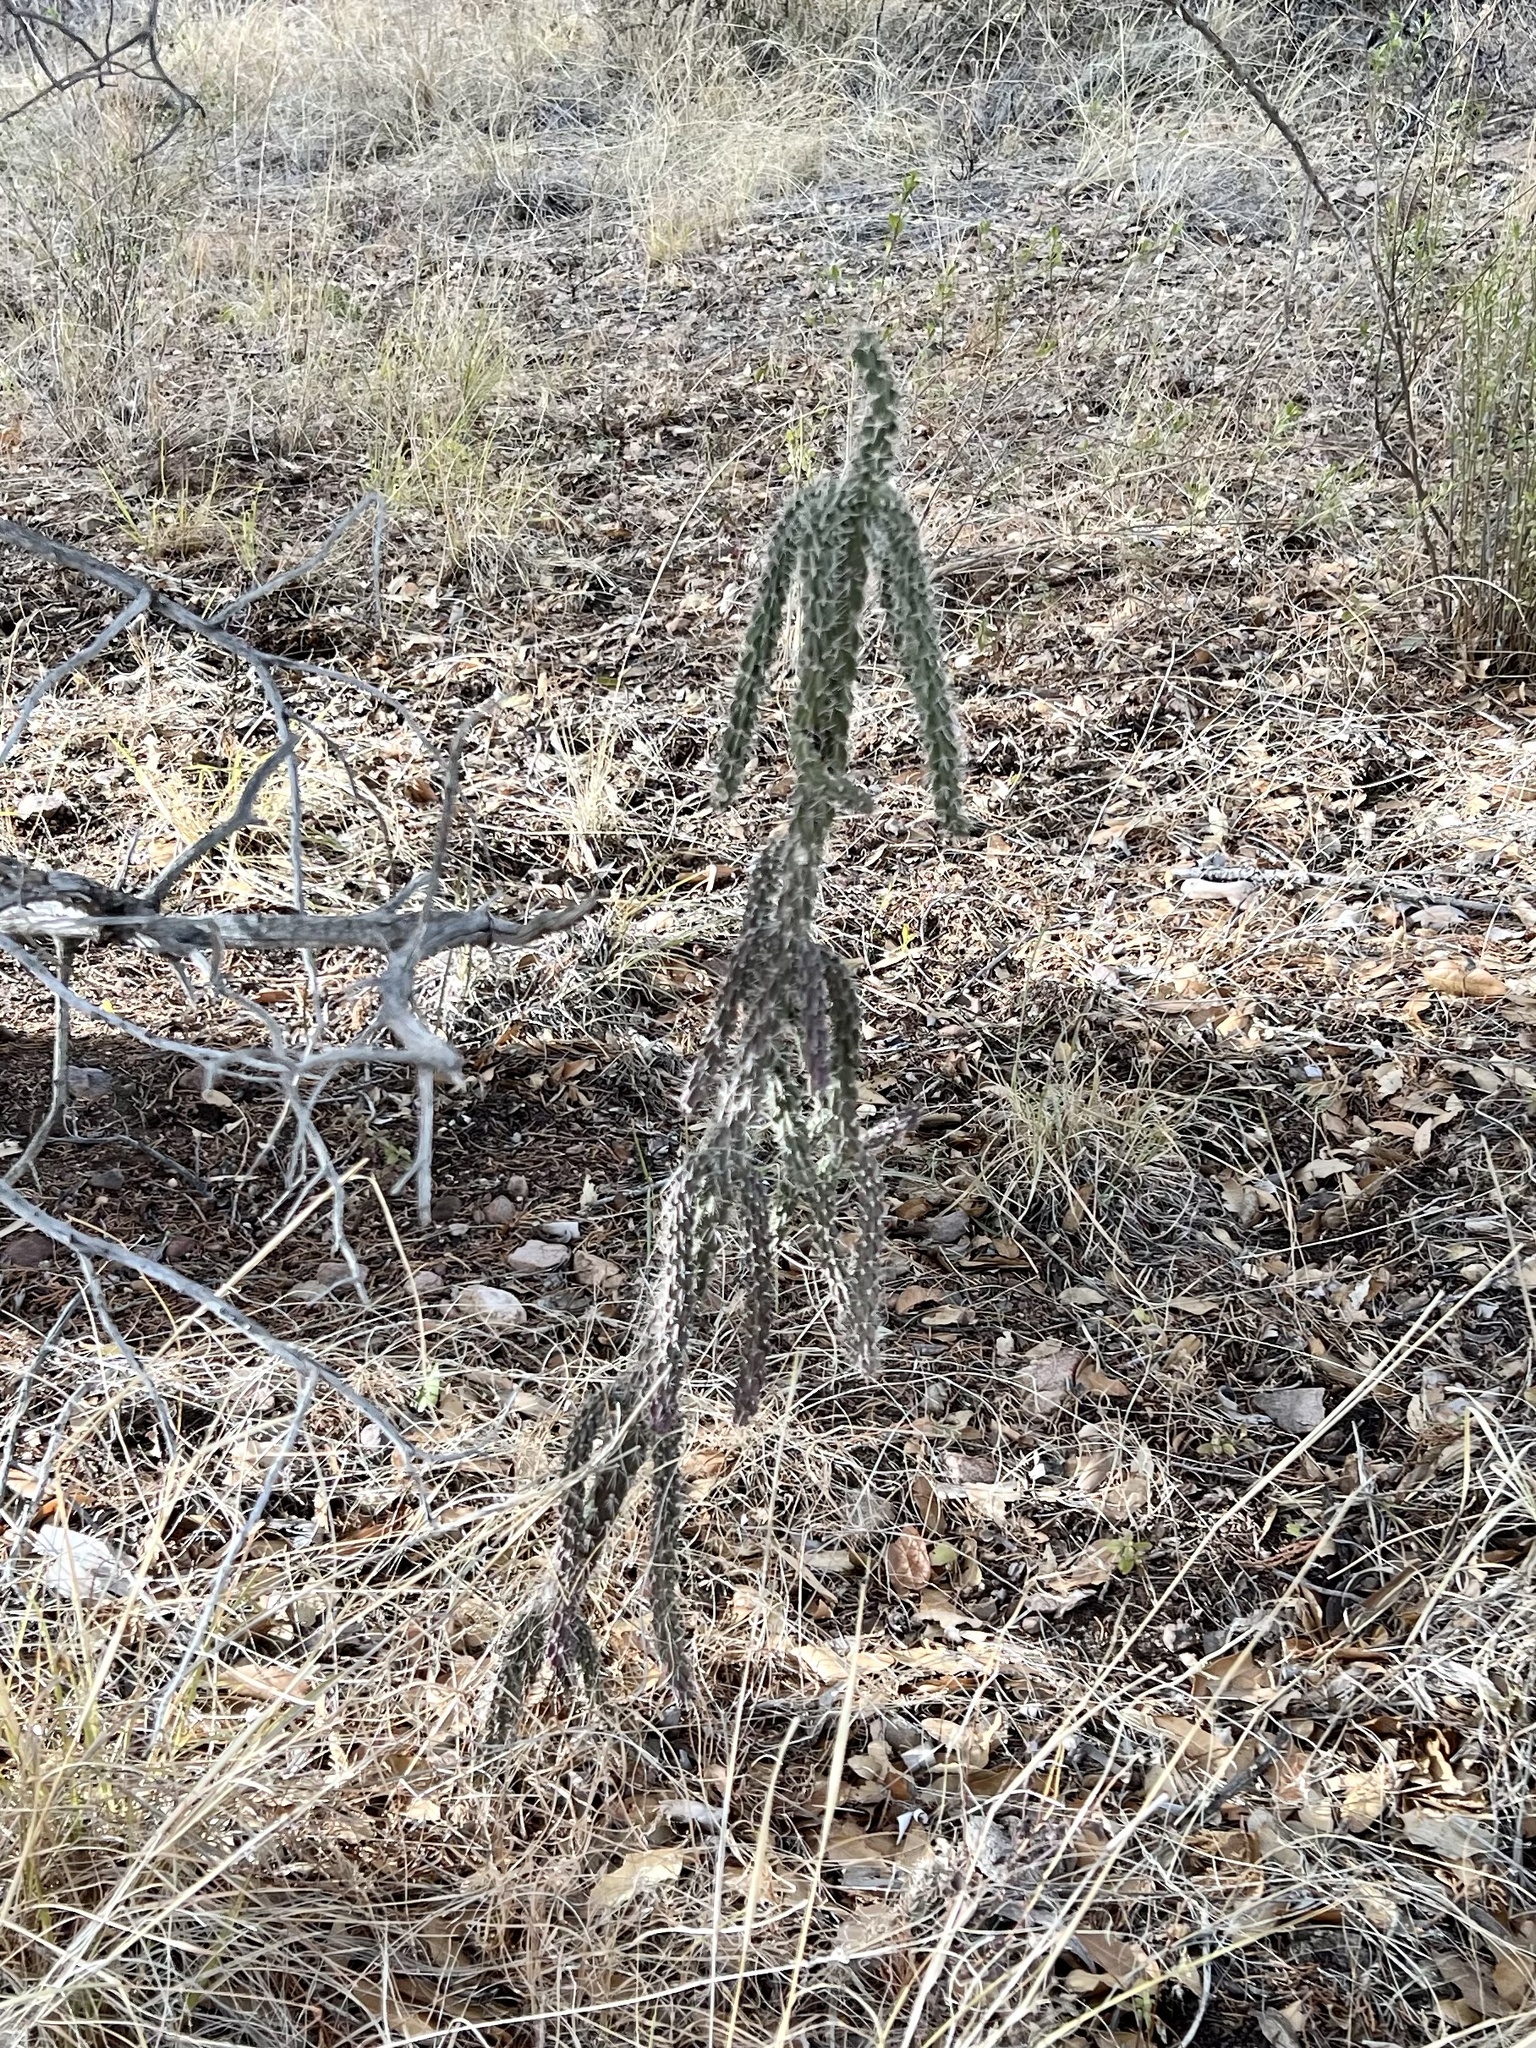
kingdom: Plantae
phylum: Tracheophyta
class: Magnoliopsida
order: Caryophyllales
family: Cactaceae
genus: Cylindropuntia
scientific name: Cylindropuntia imbricata
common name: Candelabrum cactus
